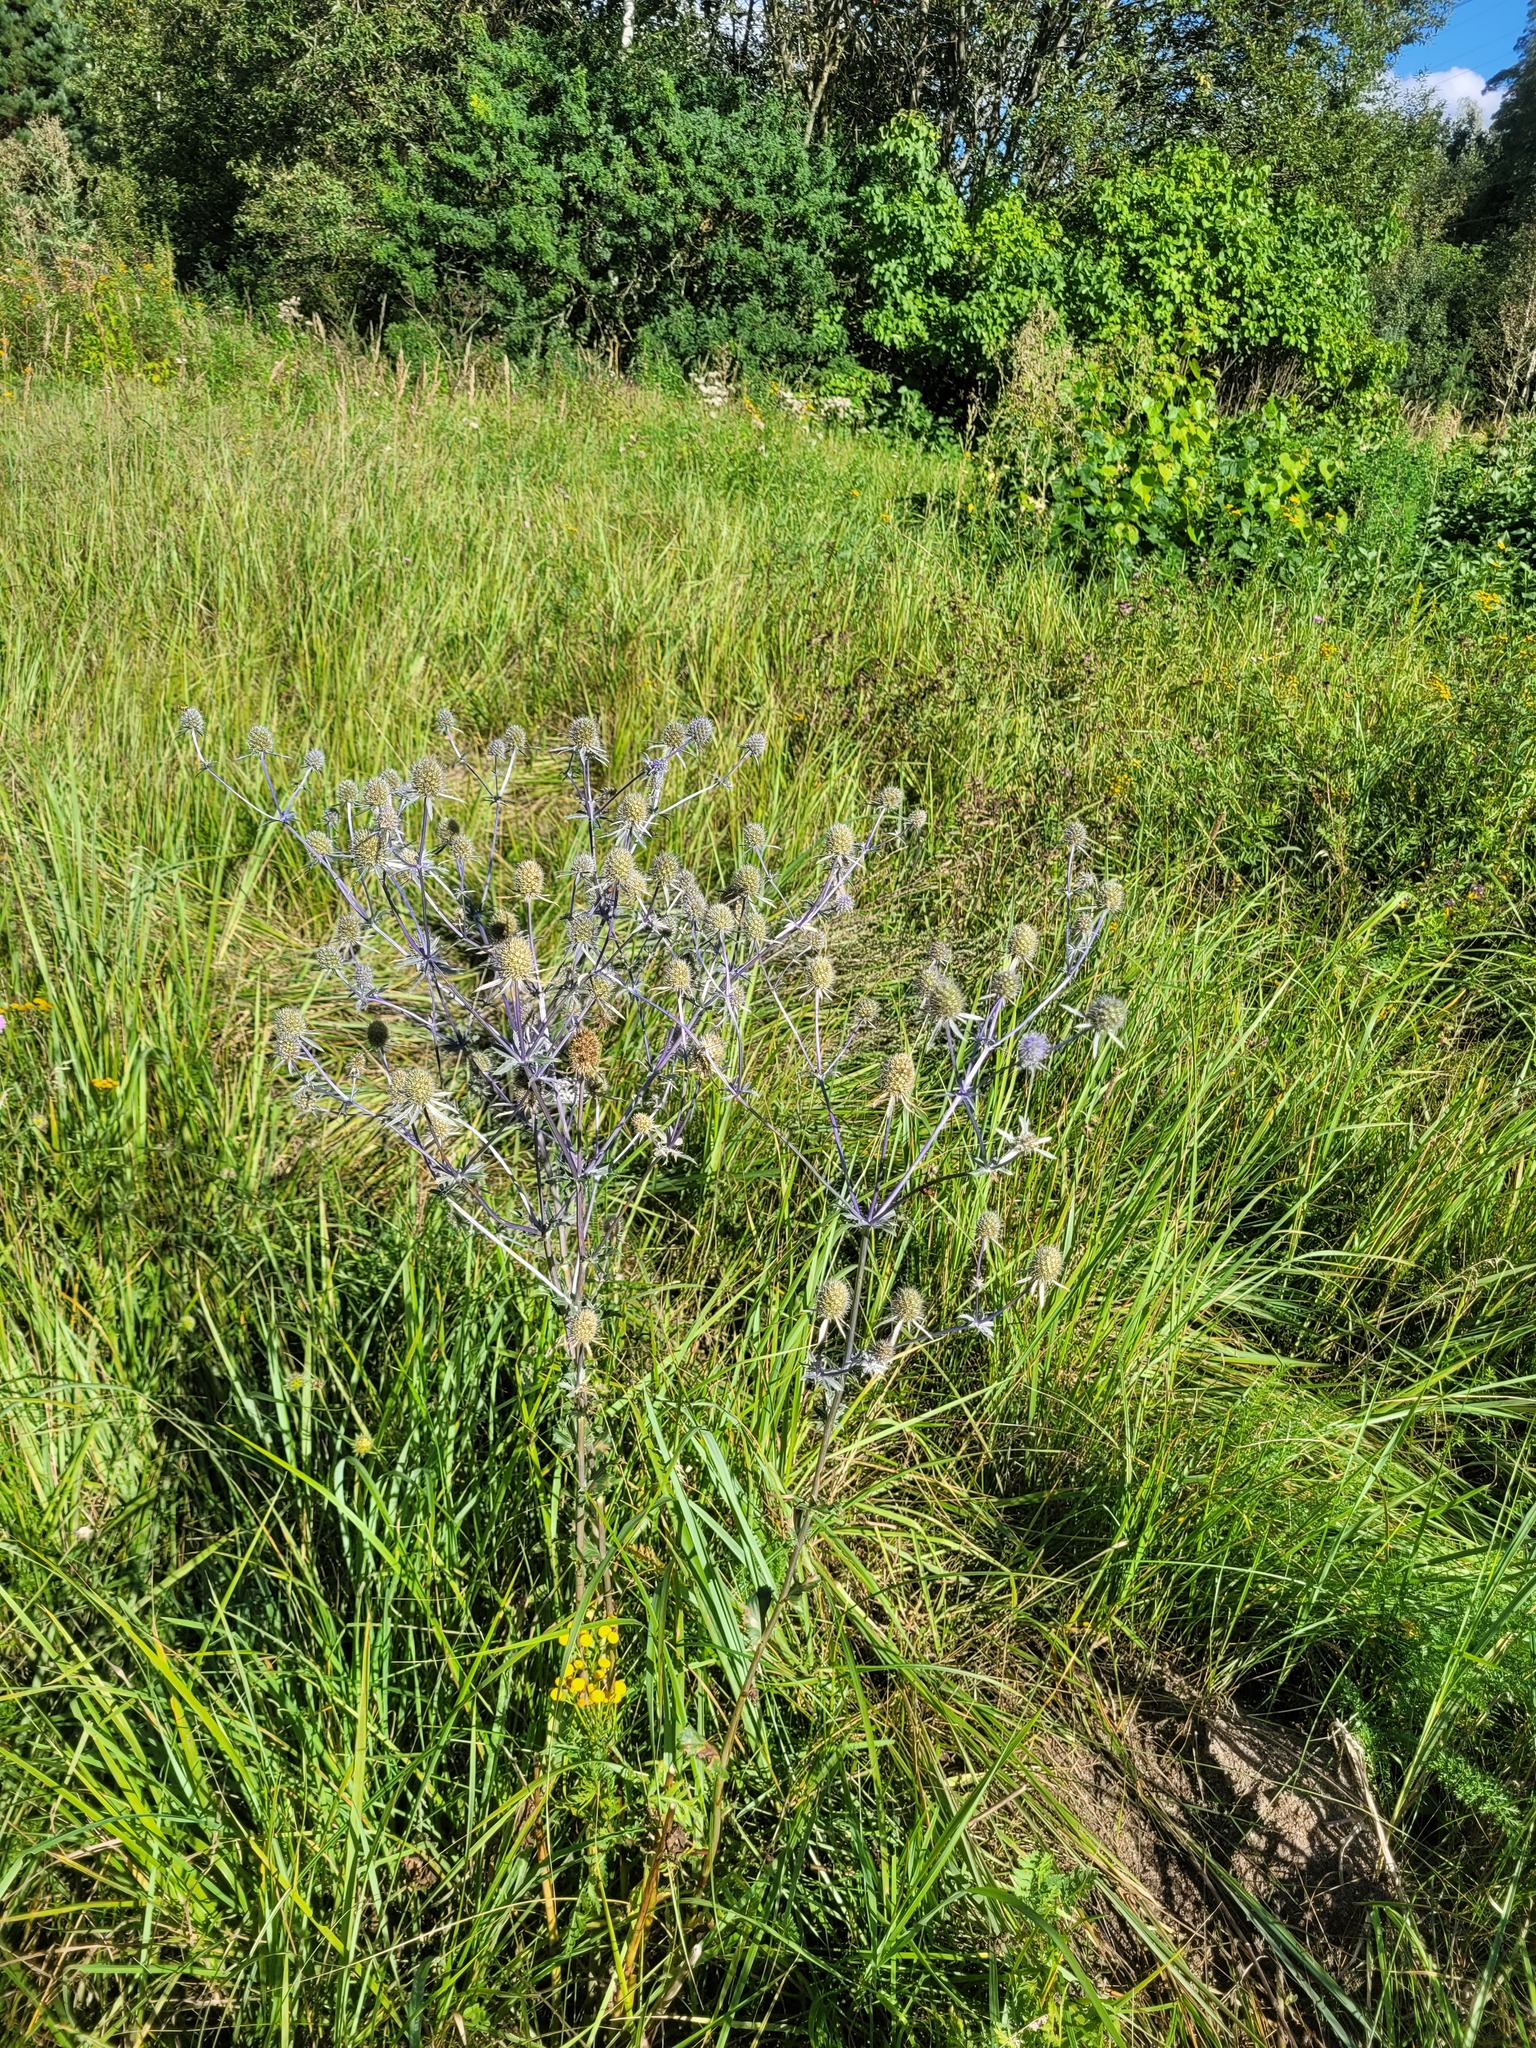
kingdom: Plantae
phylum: Tracheophyta
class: Magnoliopsida
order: Apiales
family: Apiaceae
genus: Eryngium
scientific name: Eryngium planum
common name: Blue eryngo
